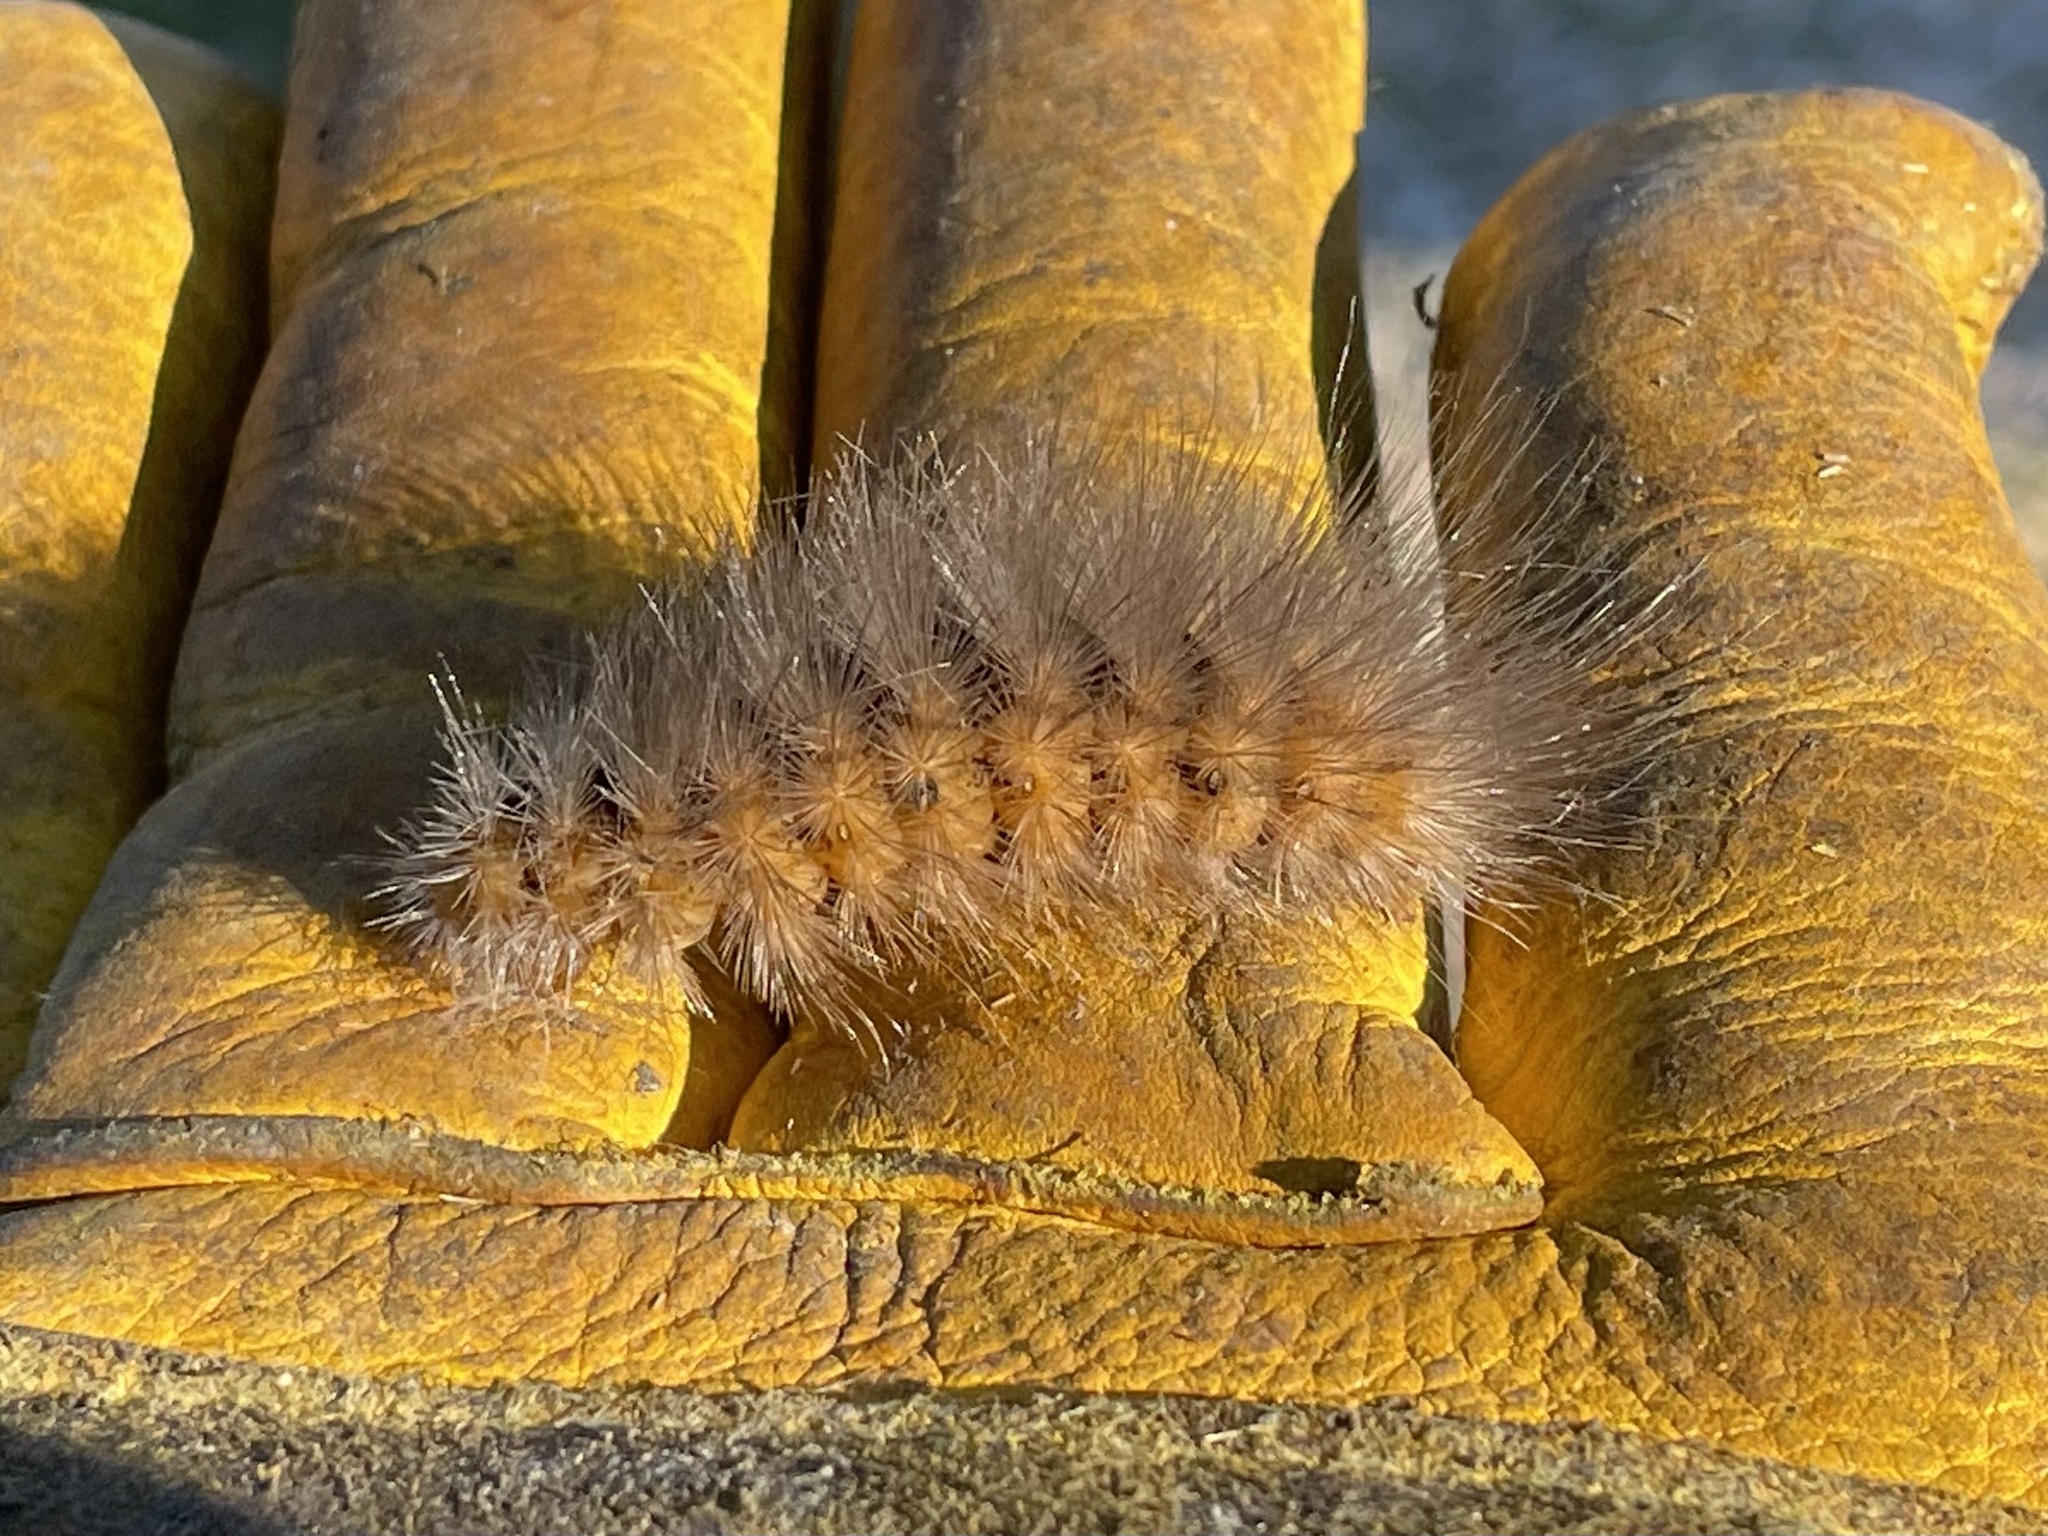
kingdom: Animalia
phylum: Arthropoda
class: Insecta
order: Lepidoptera
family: Erebidae
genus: Estigmene
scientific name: Estigmene acrea
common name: Salt marsh moth
